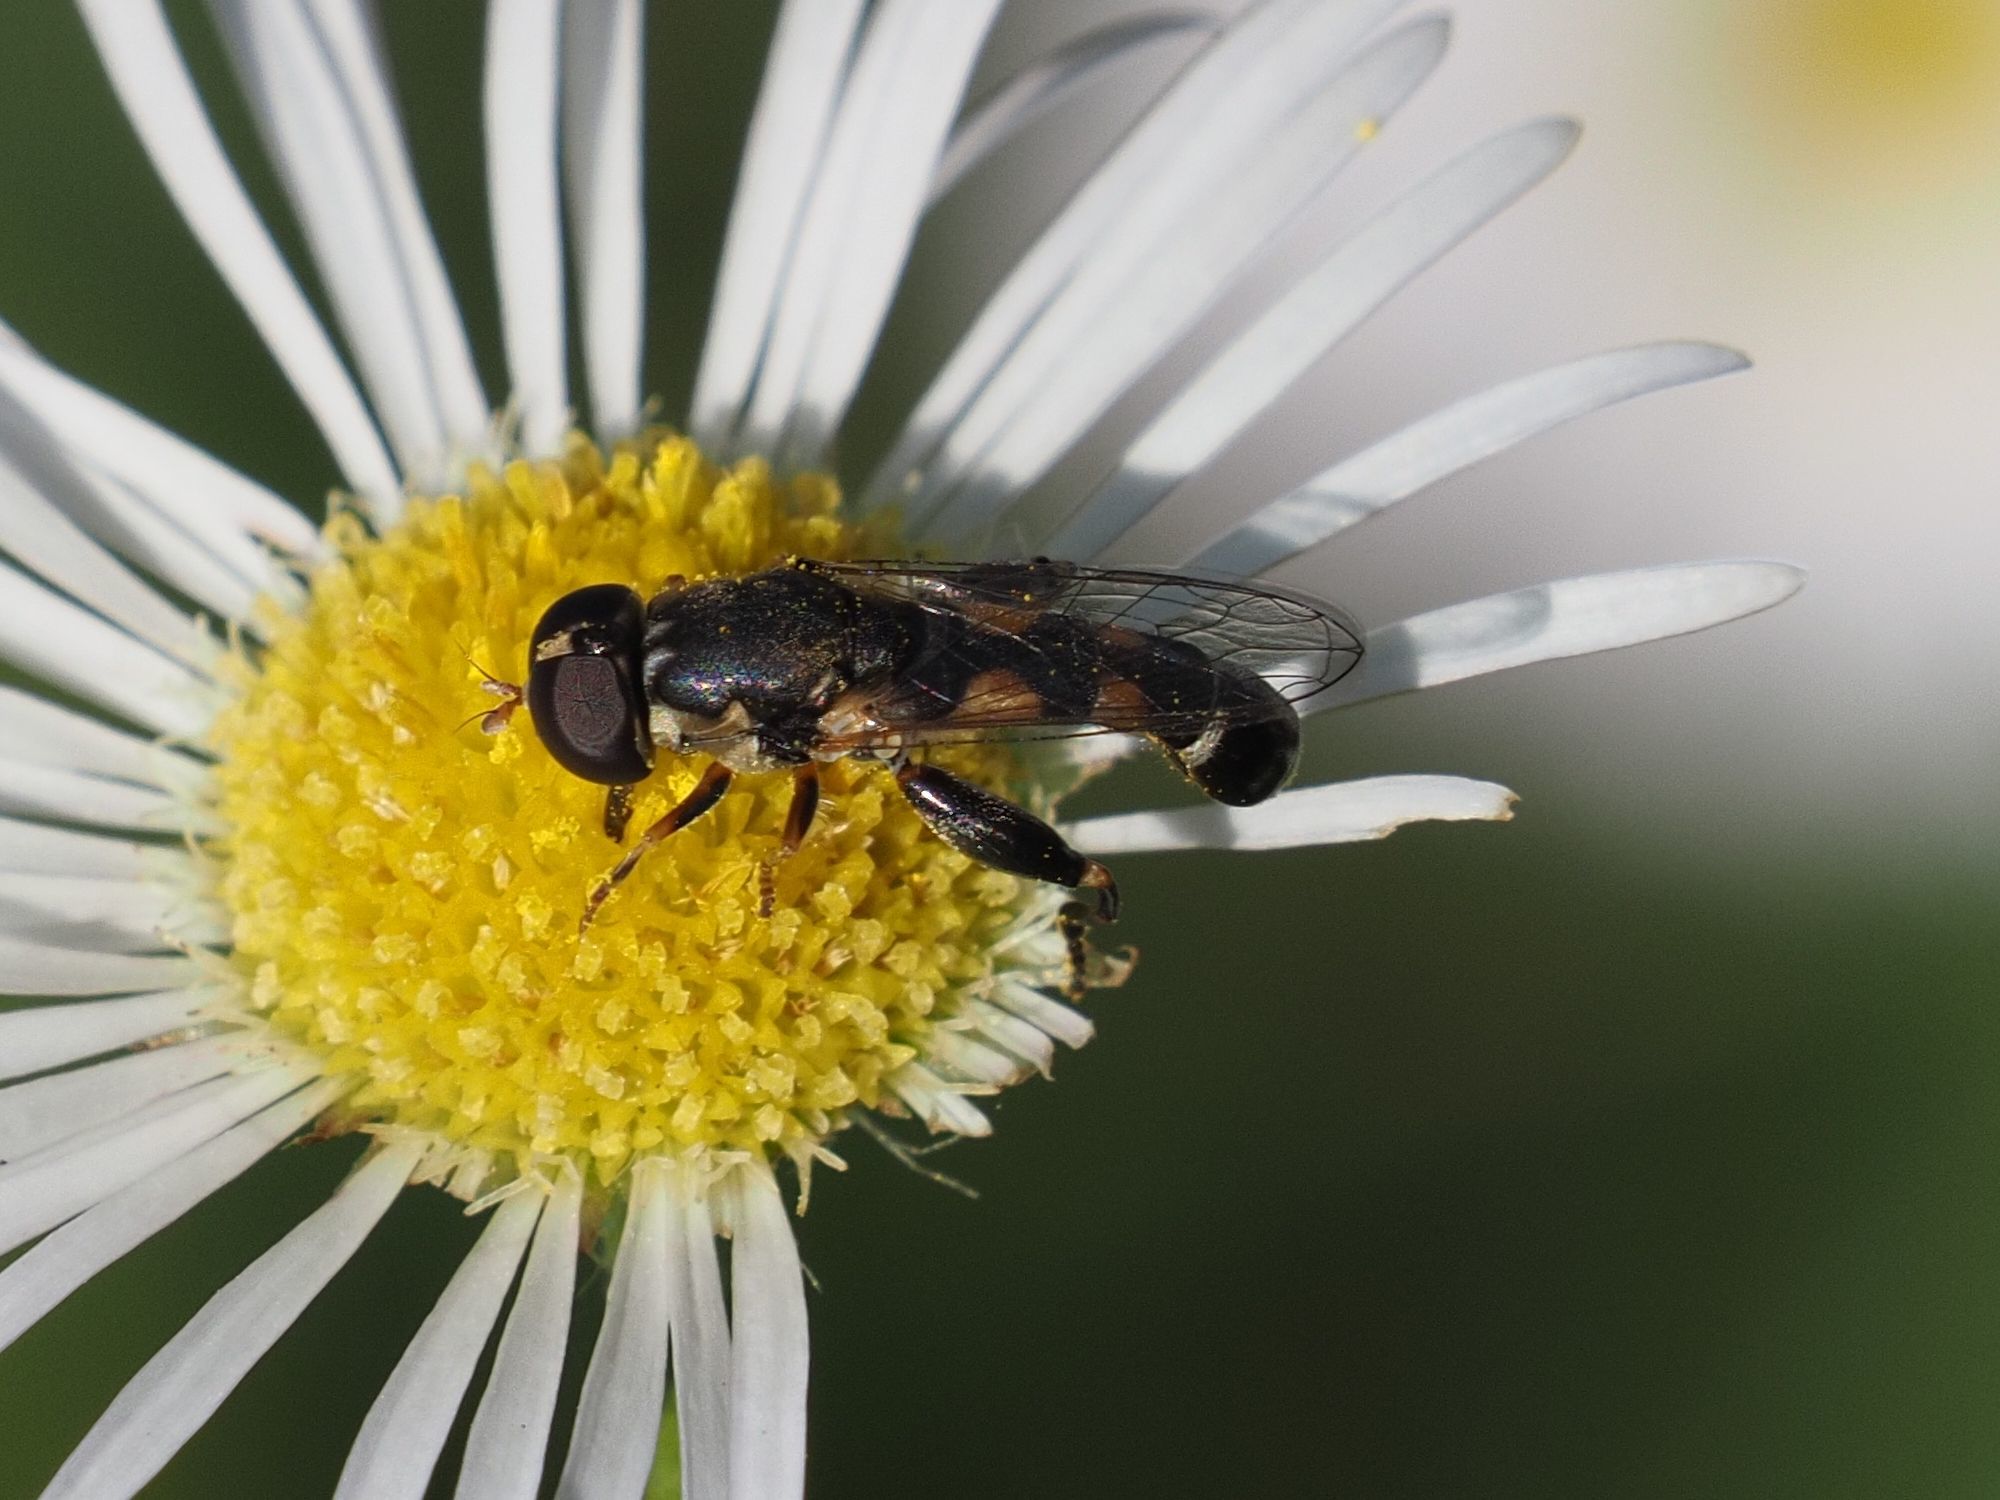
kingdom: Animalia
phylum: Arthropoda
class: Insecta
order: Diptera
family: Syrphidae
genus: Syritta
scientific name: Syritta pipiens
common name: Hover fly
